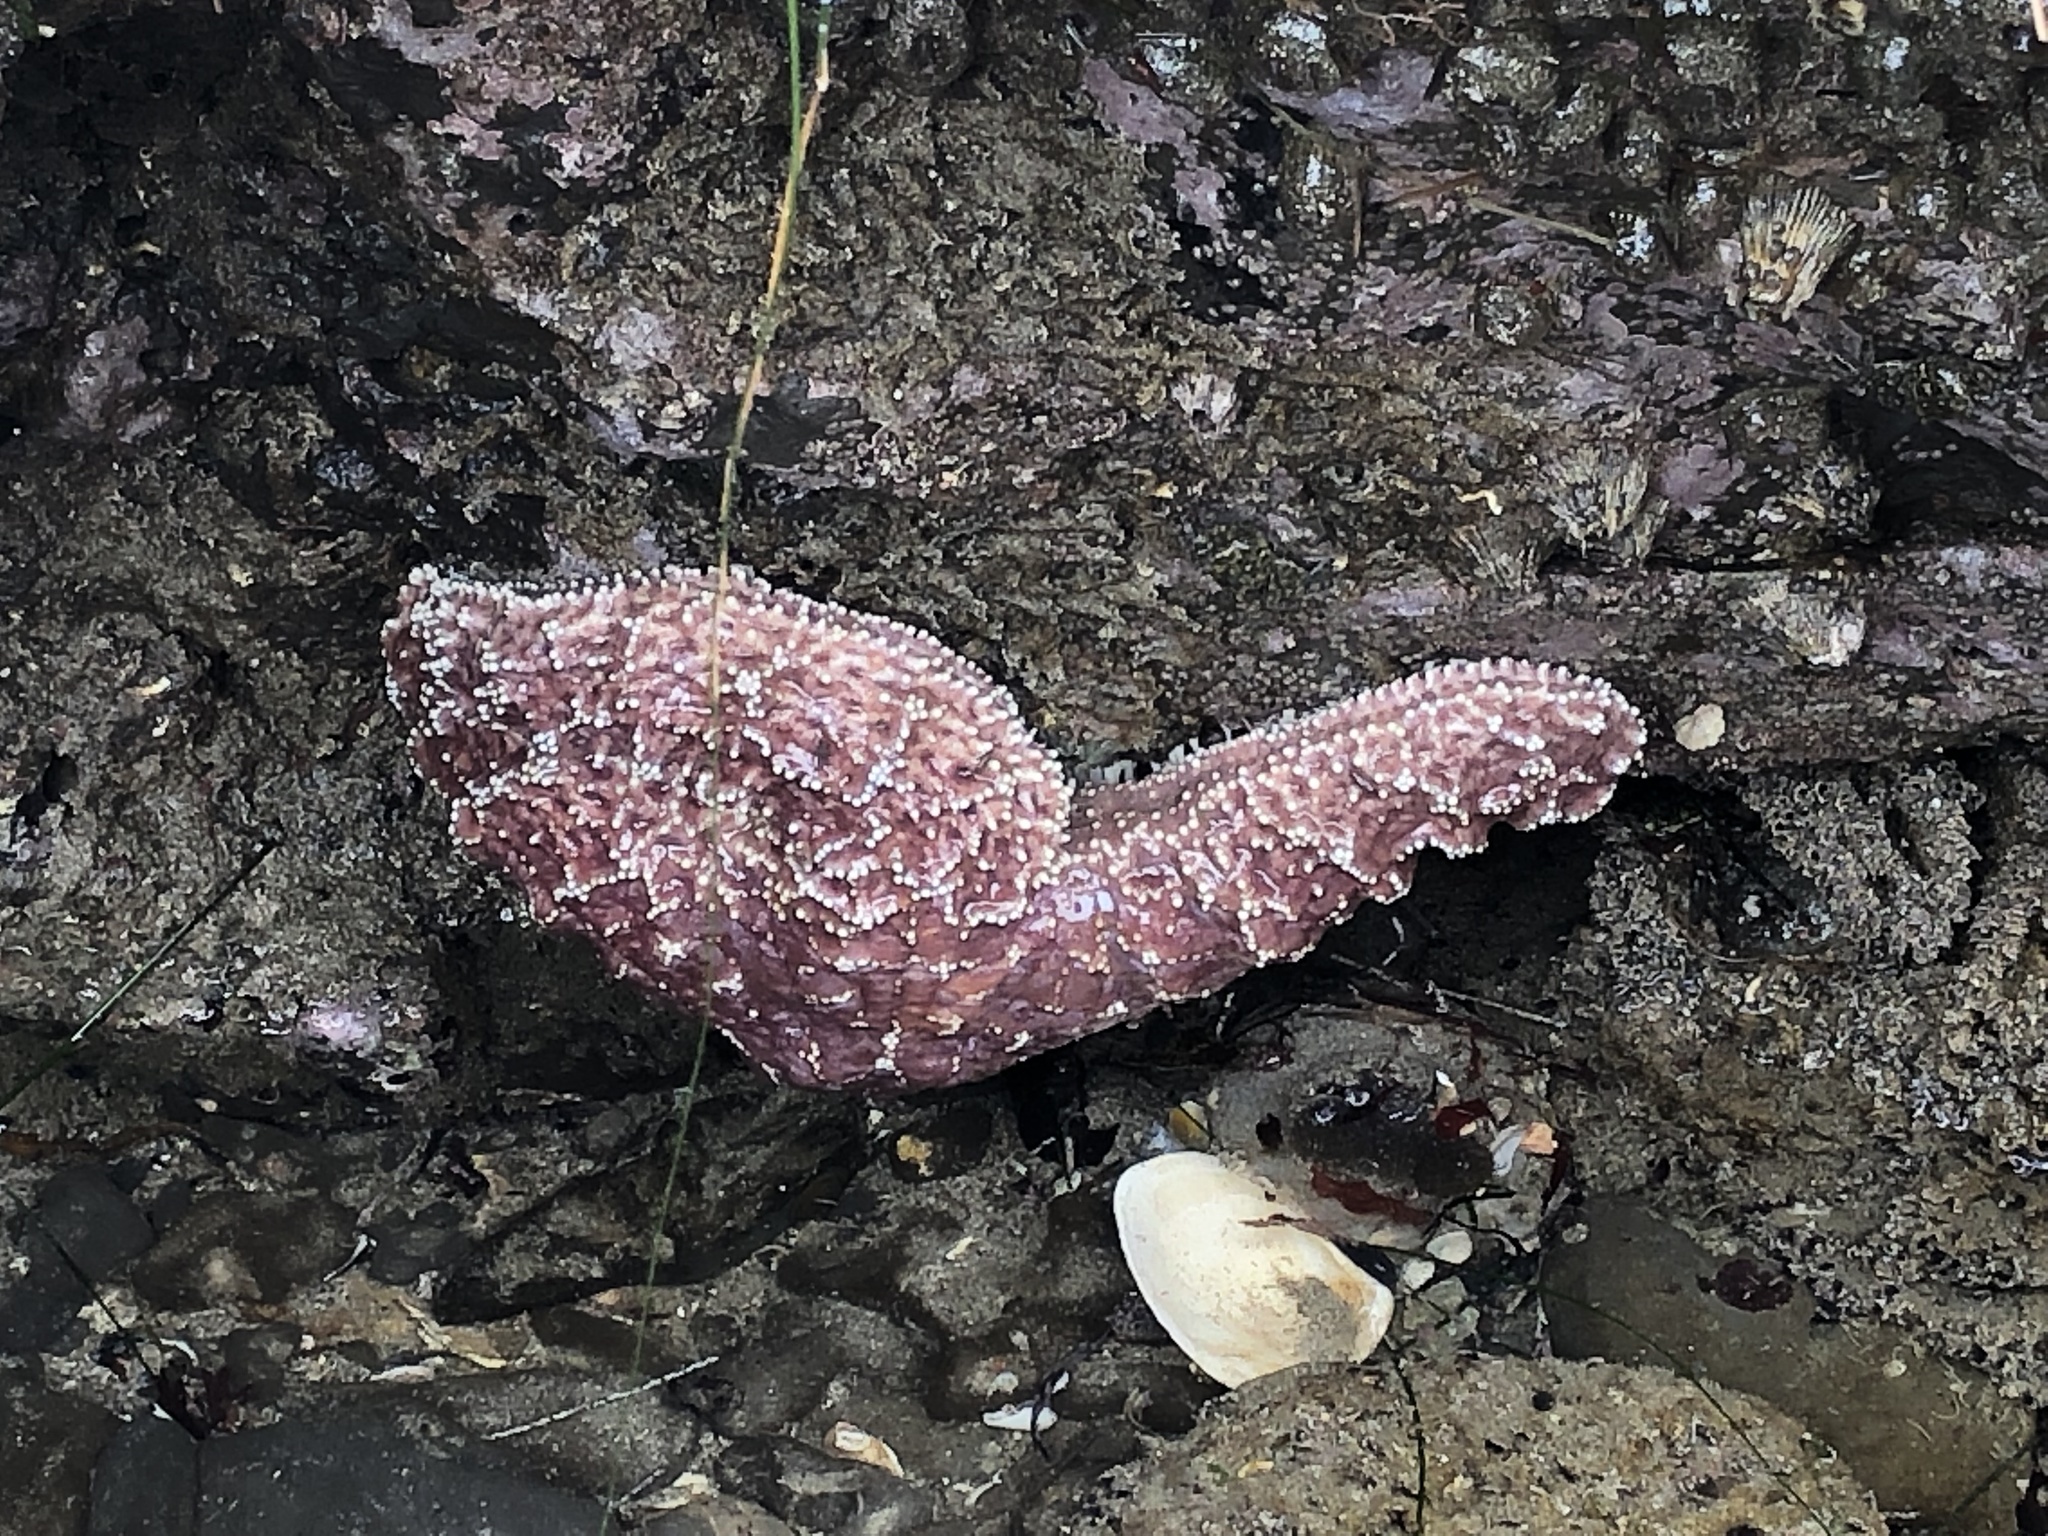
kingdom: Animalia
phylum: Echinodermata
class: Asteroidea
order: Forcipulatida
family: Asteriidae
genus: Pisaster
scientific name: Pisaster ochraceus
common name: Ochre stars
